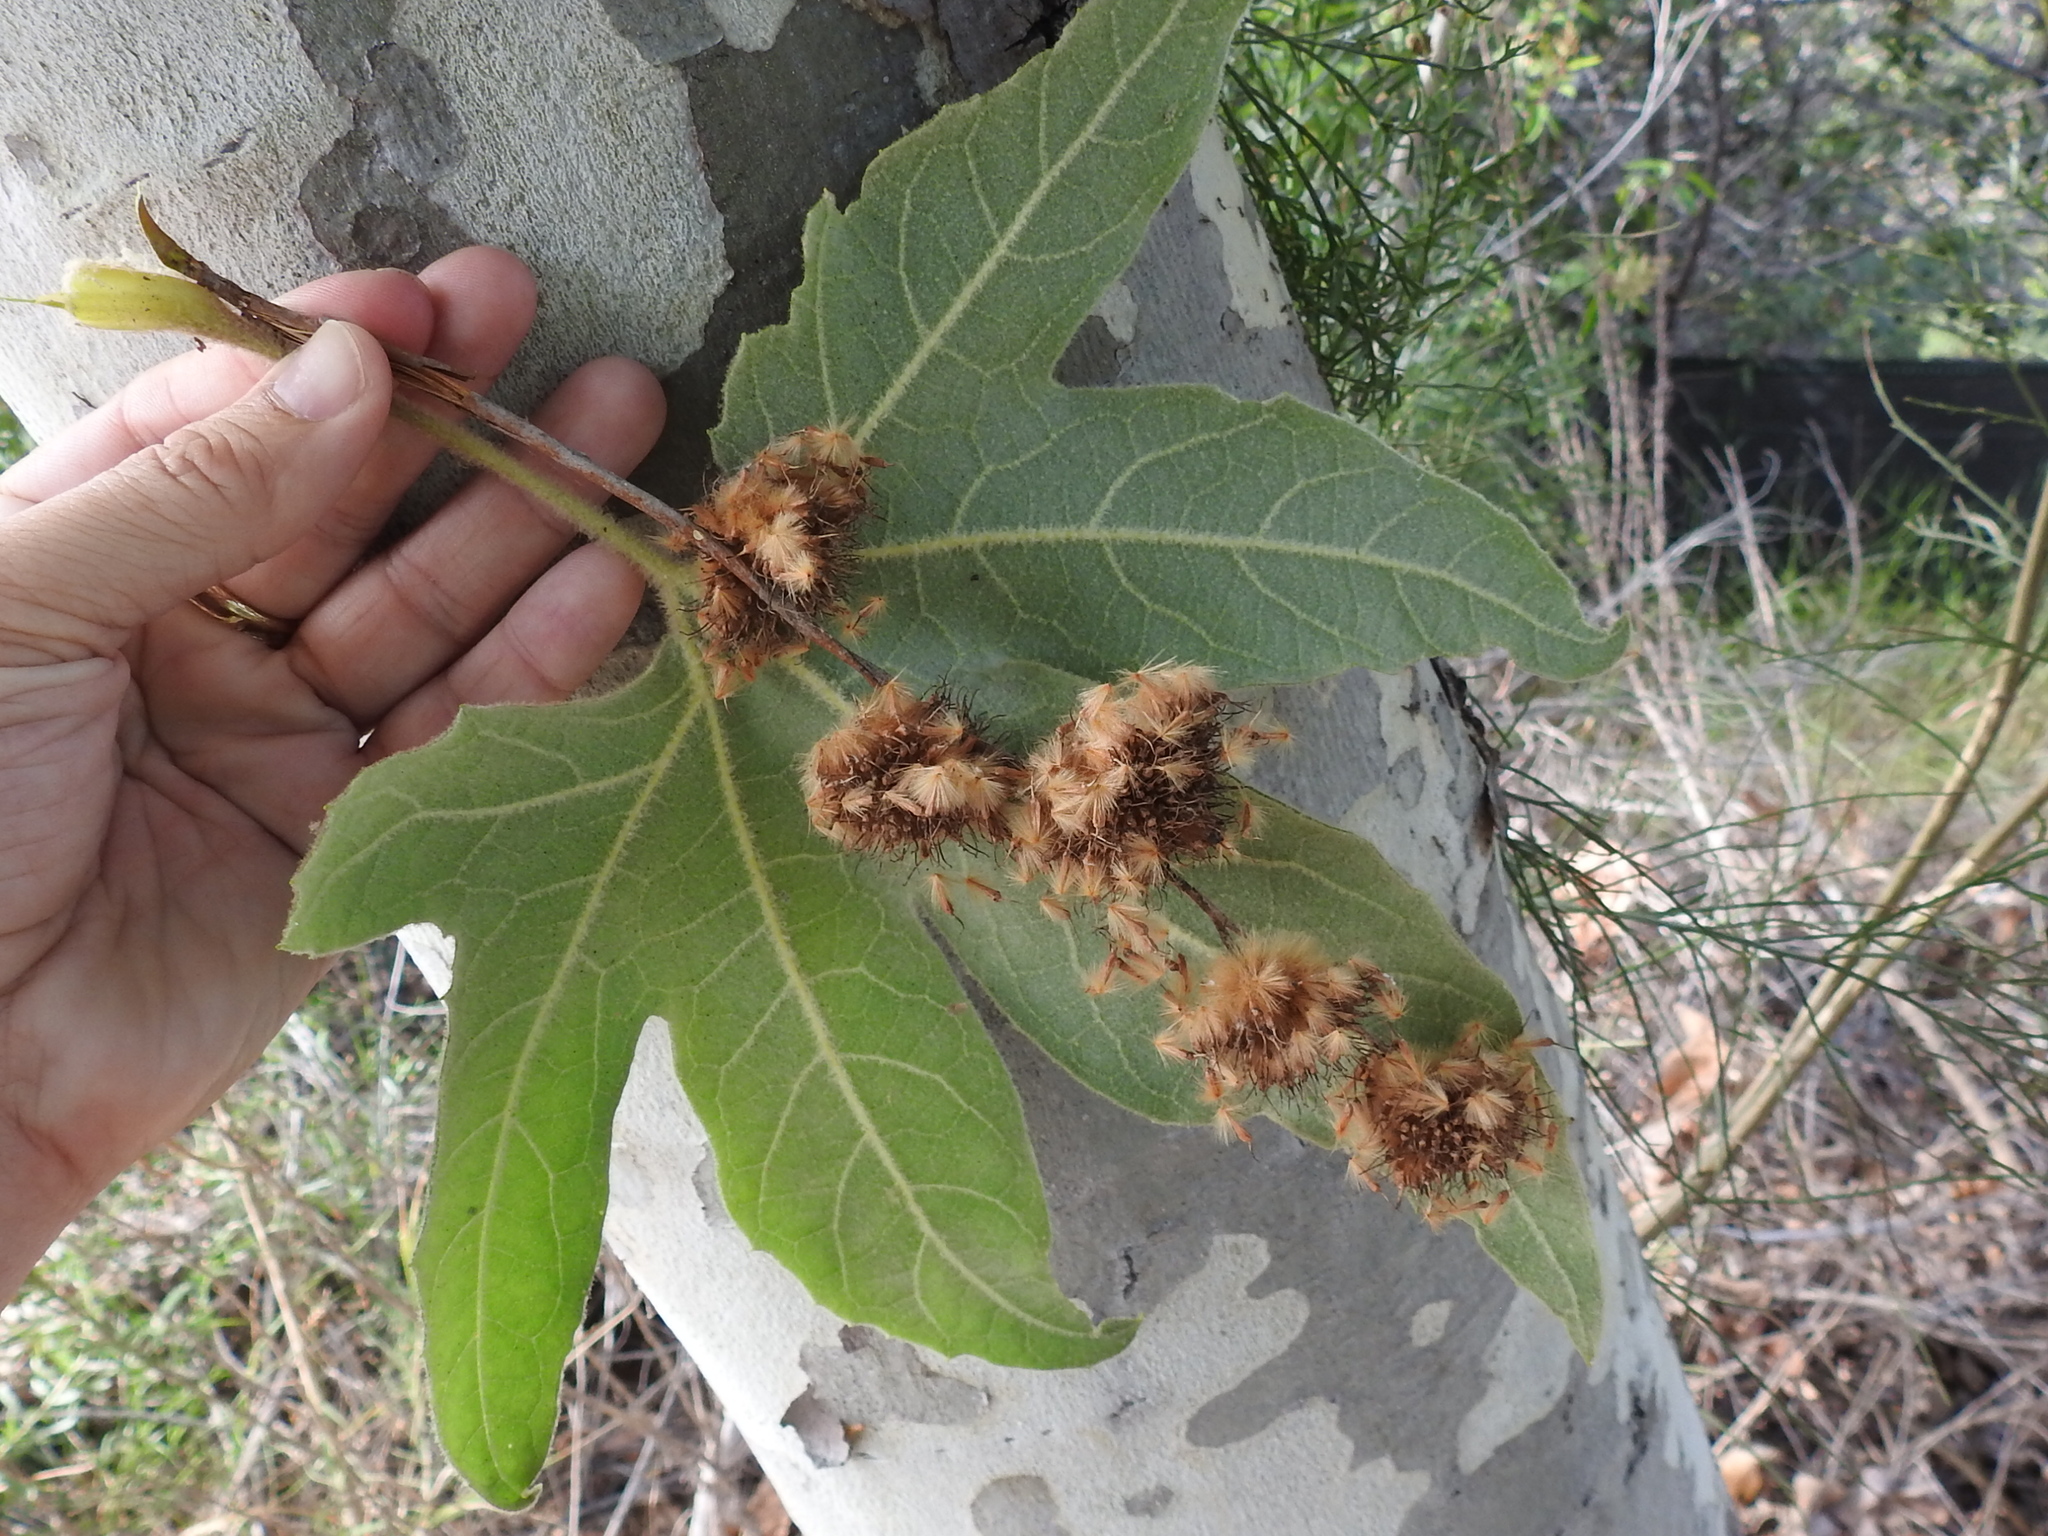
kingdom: Plantae
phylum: Tracheophyta
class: Magnoliopsida
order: Proteales
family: Platanaceae
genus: Platanus
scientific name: Platanus racemosa
